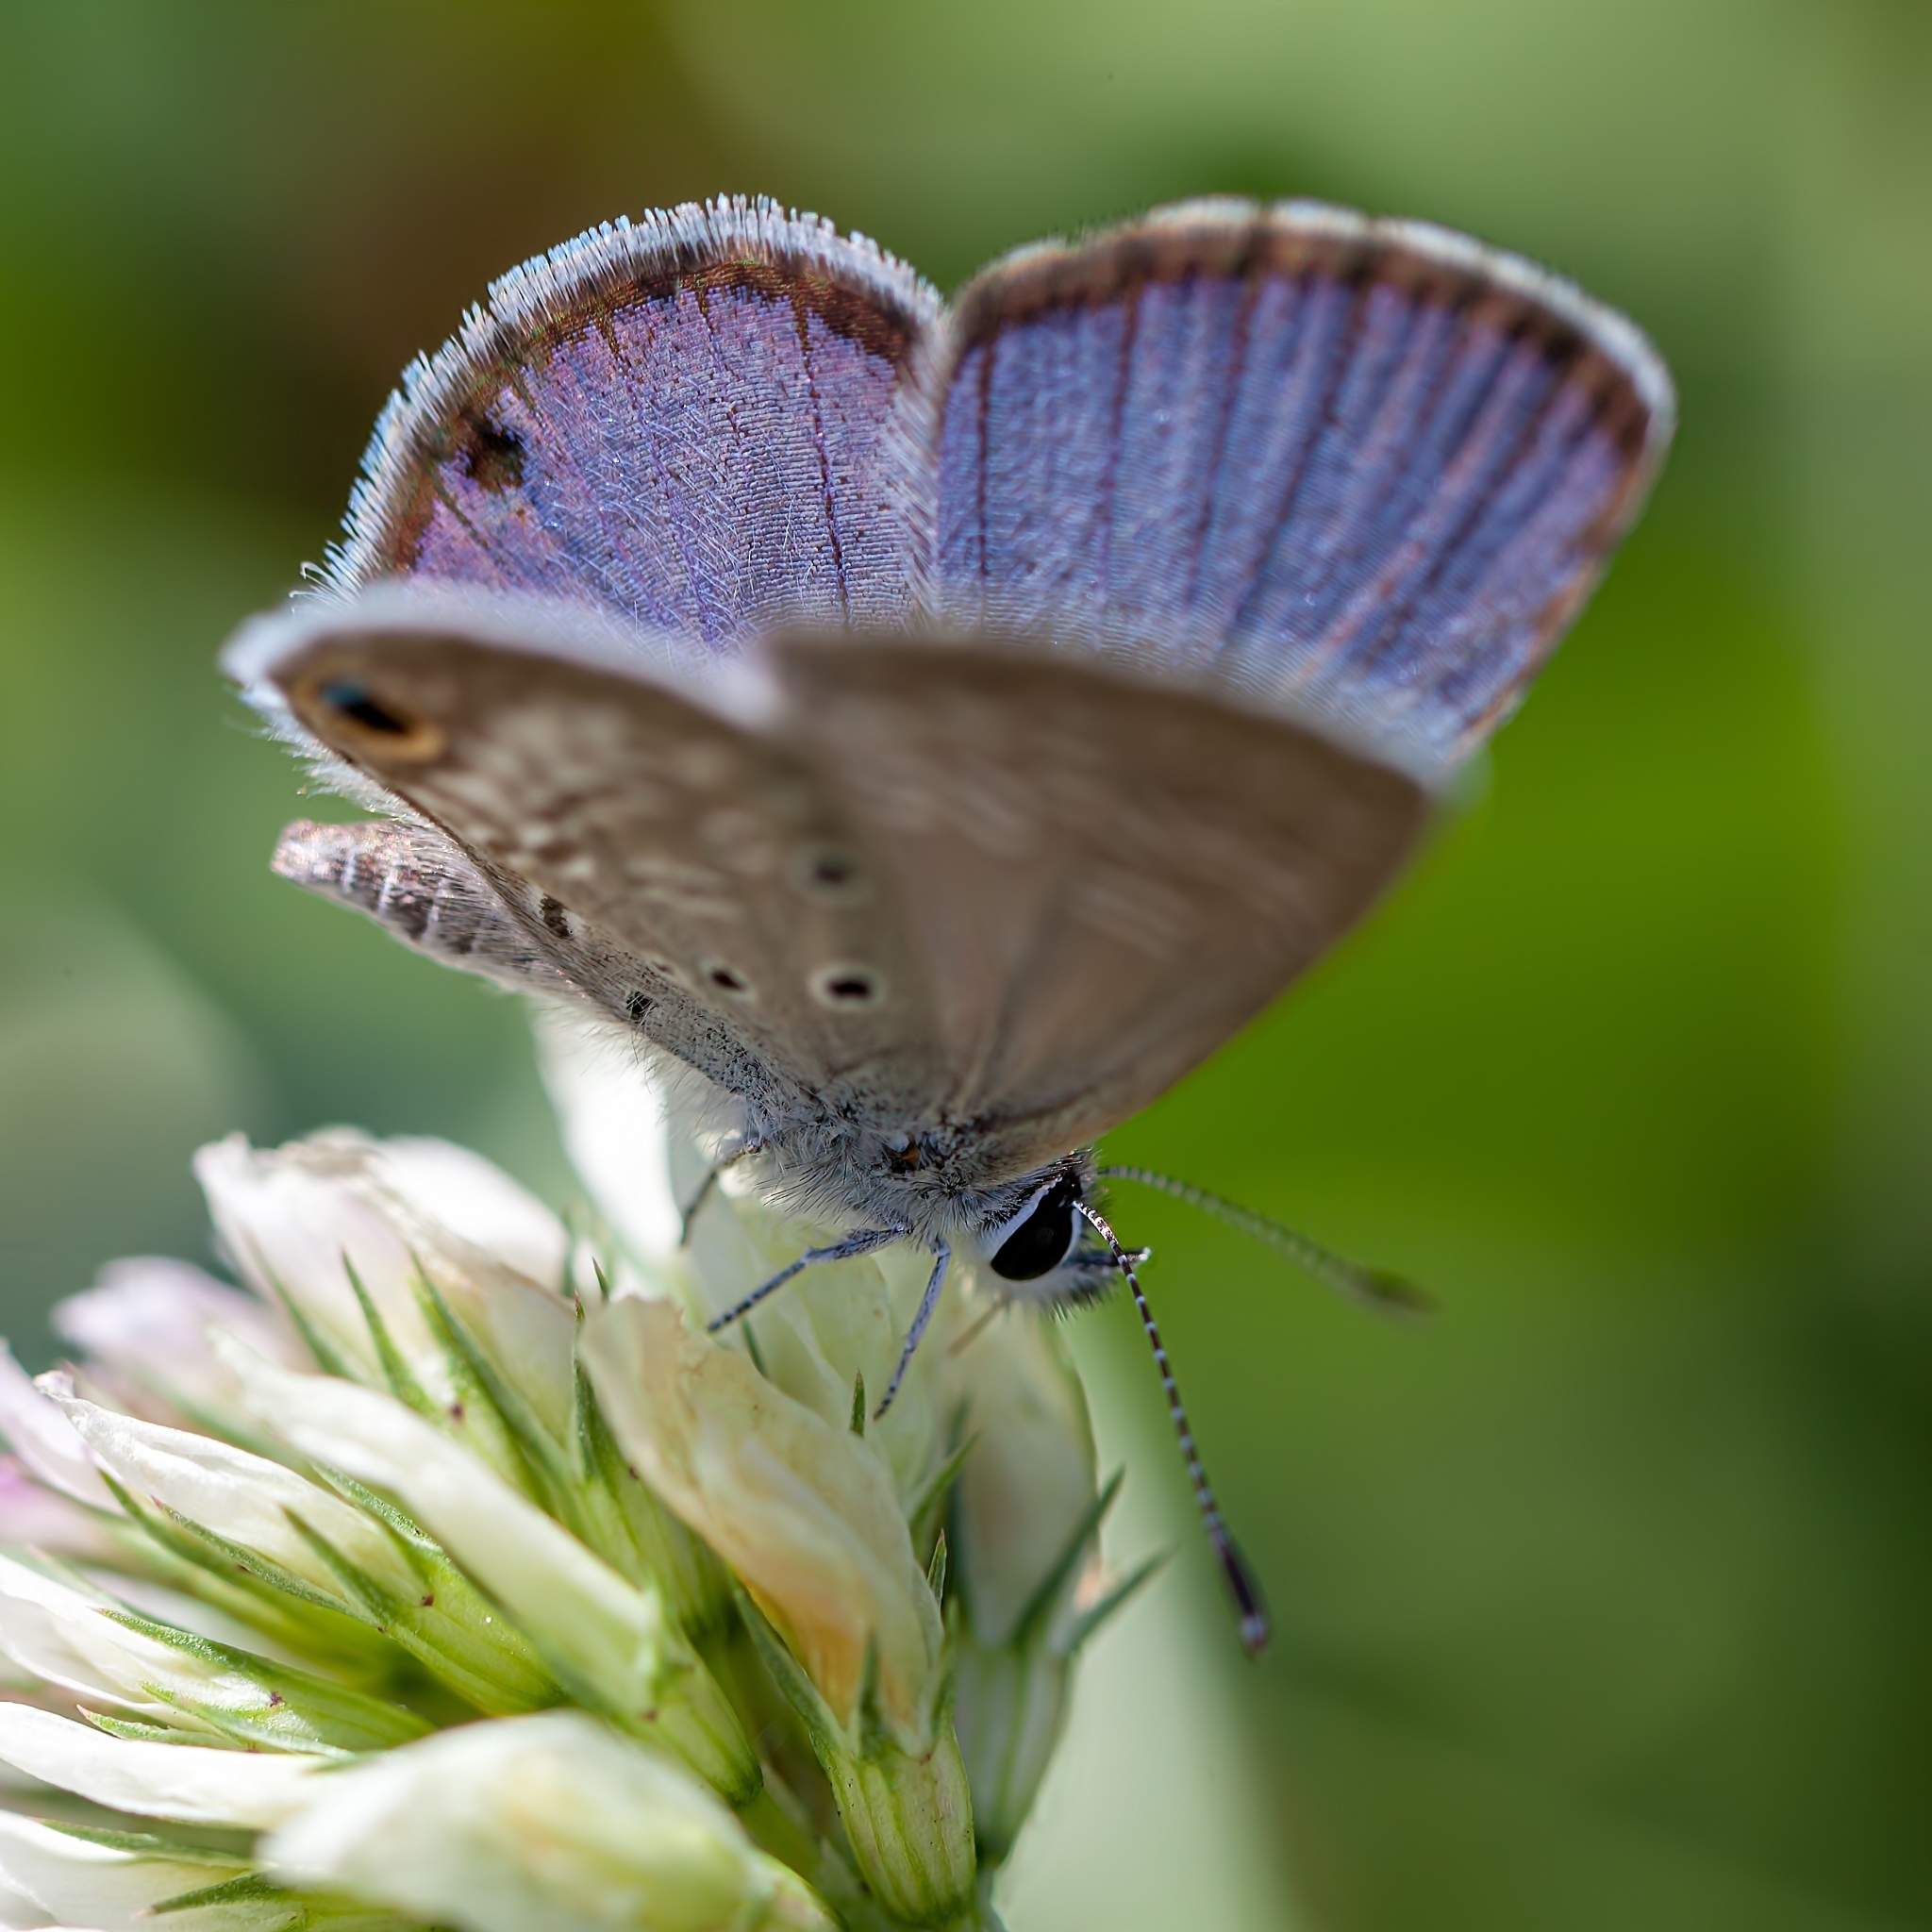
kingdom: Animalia
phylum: Arthropoda
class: Insecta
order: Lepidoptera
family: Lycaenidae
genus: Hemiargus
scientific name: Hemiargus ceraunus
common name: Ceraunus blue
